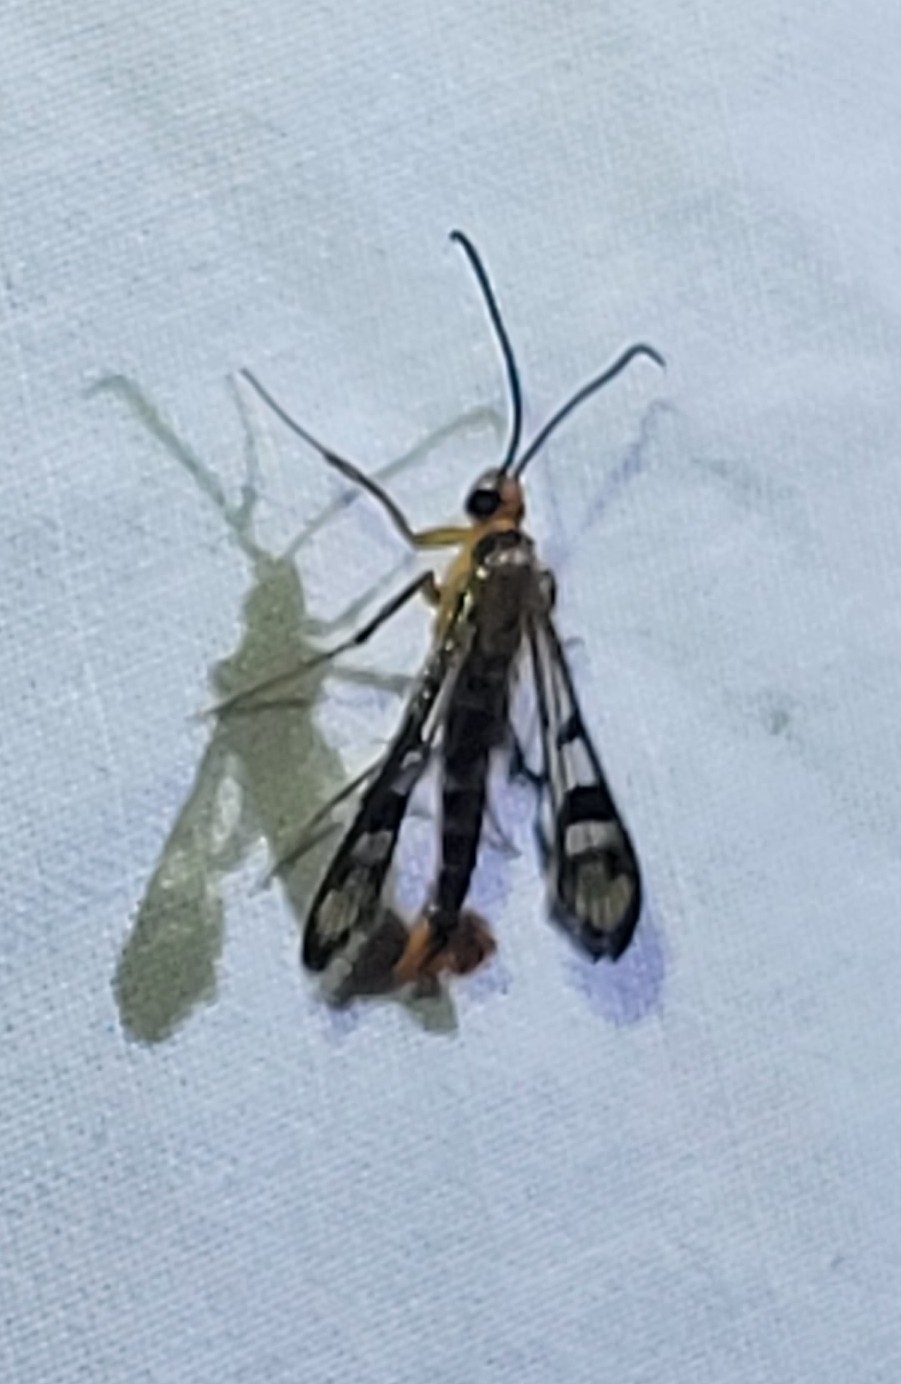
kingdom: Animalia
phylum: Arthropoda
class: Insecta
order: Lepidoptera
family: Sesiidae
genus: Synanthedon
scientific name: Synanthedon acerni
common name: Maple callus borer moth
